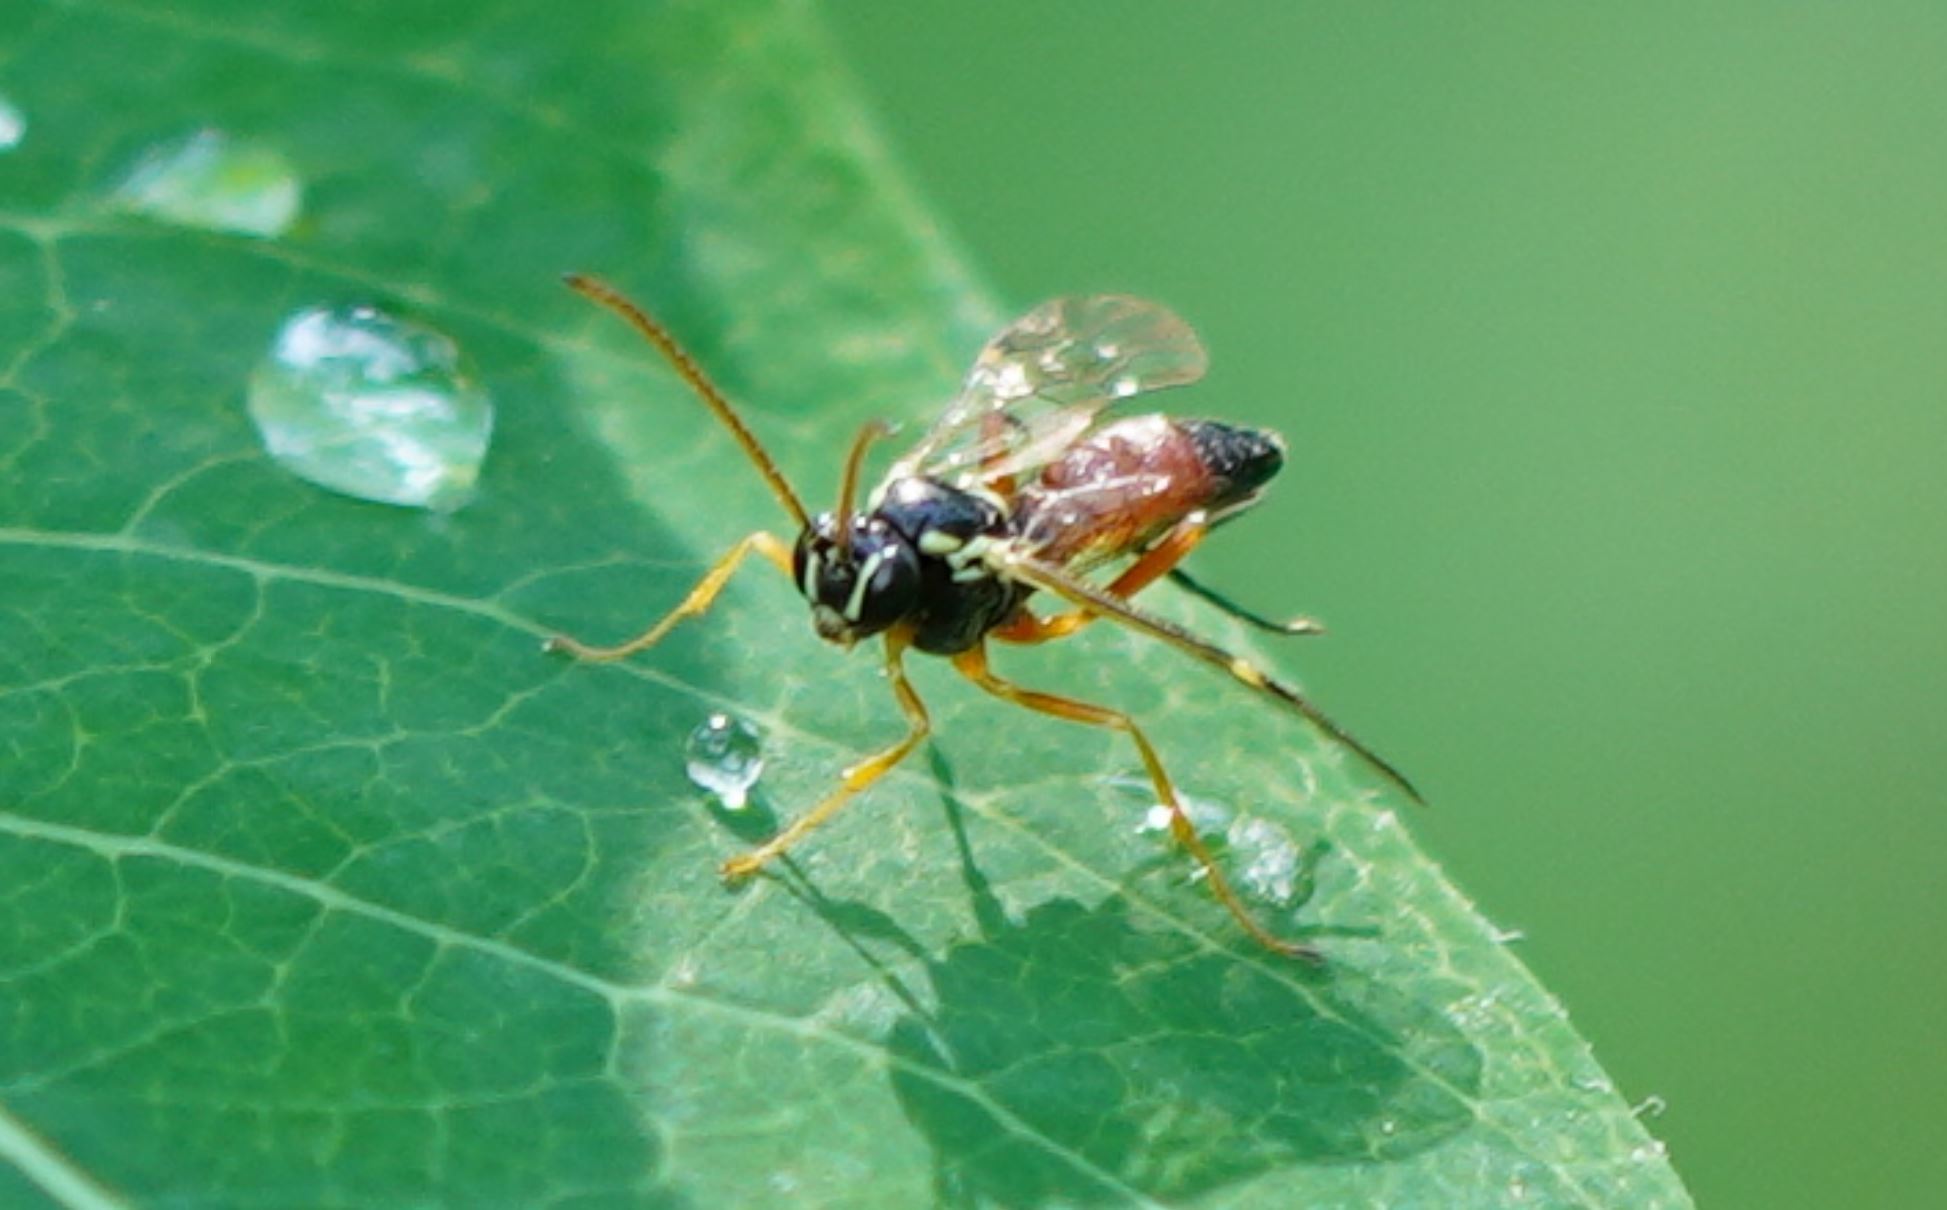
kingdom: Animalia
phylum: Arthropoda
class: Insecta
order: Hymenoptera
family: Ichneumonidae
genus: Diplazon
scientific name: Diplazon laetatorius
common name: Parasitoid wasp
